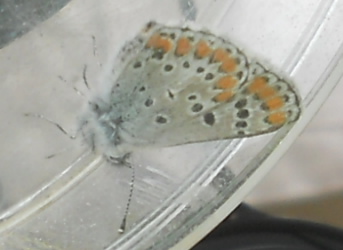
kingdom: Animalia
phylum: Arthropoda
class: Insecta
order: Lepidoptera
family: Lycaenidae
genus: Aricia
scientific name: Aricia agestis
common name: Brown argus
